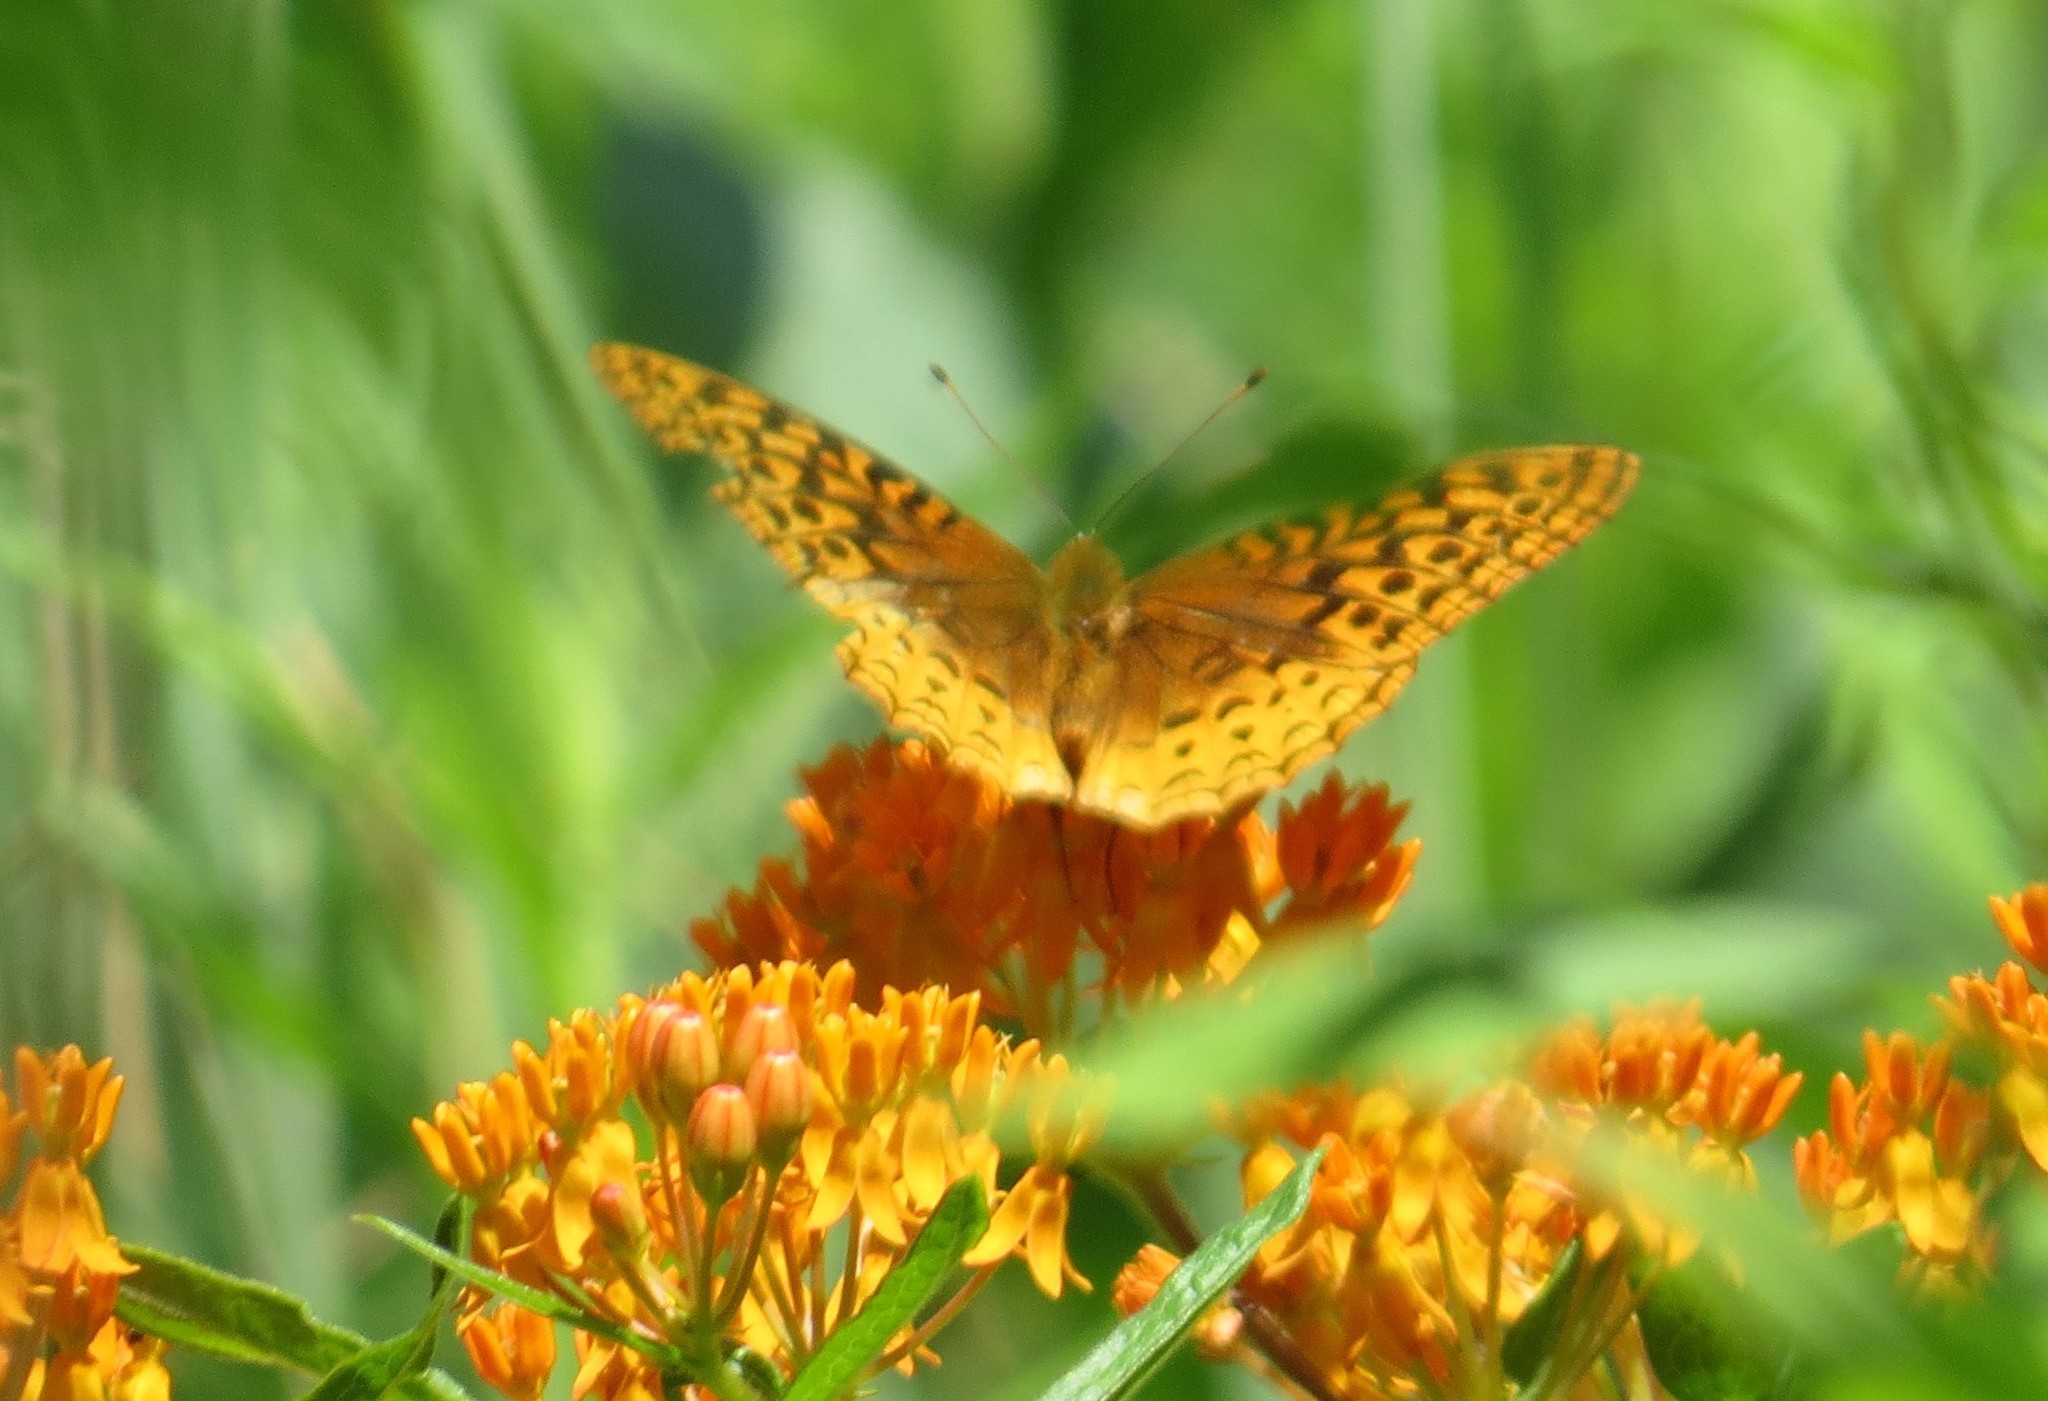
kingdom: Animalia
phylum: Arthropoda
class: Insecta
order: Lepidoptera
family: Nymphalidae
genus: Speyeria
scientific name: Speyeria cybele
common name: Great spangled fritillary
